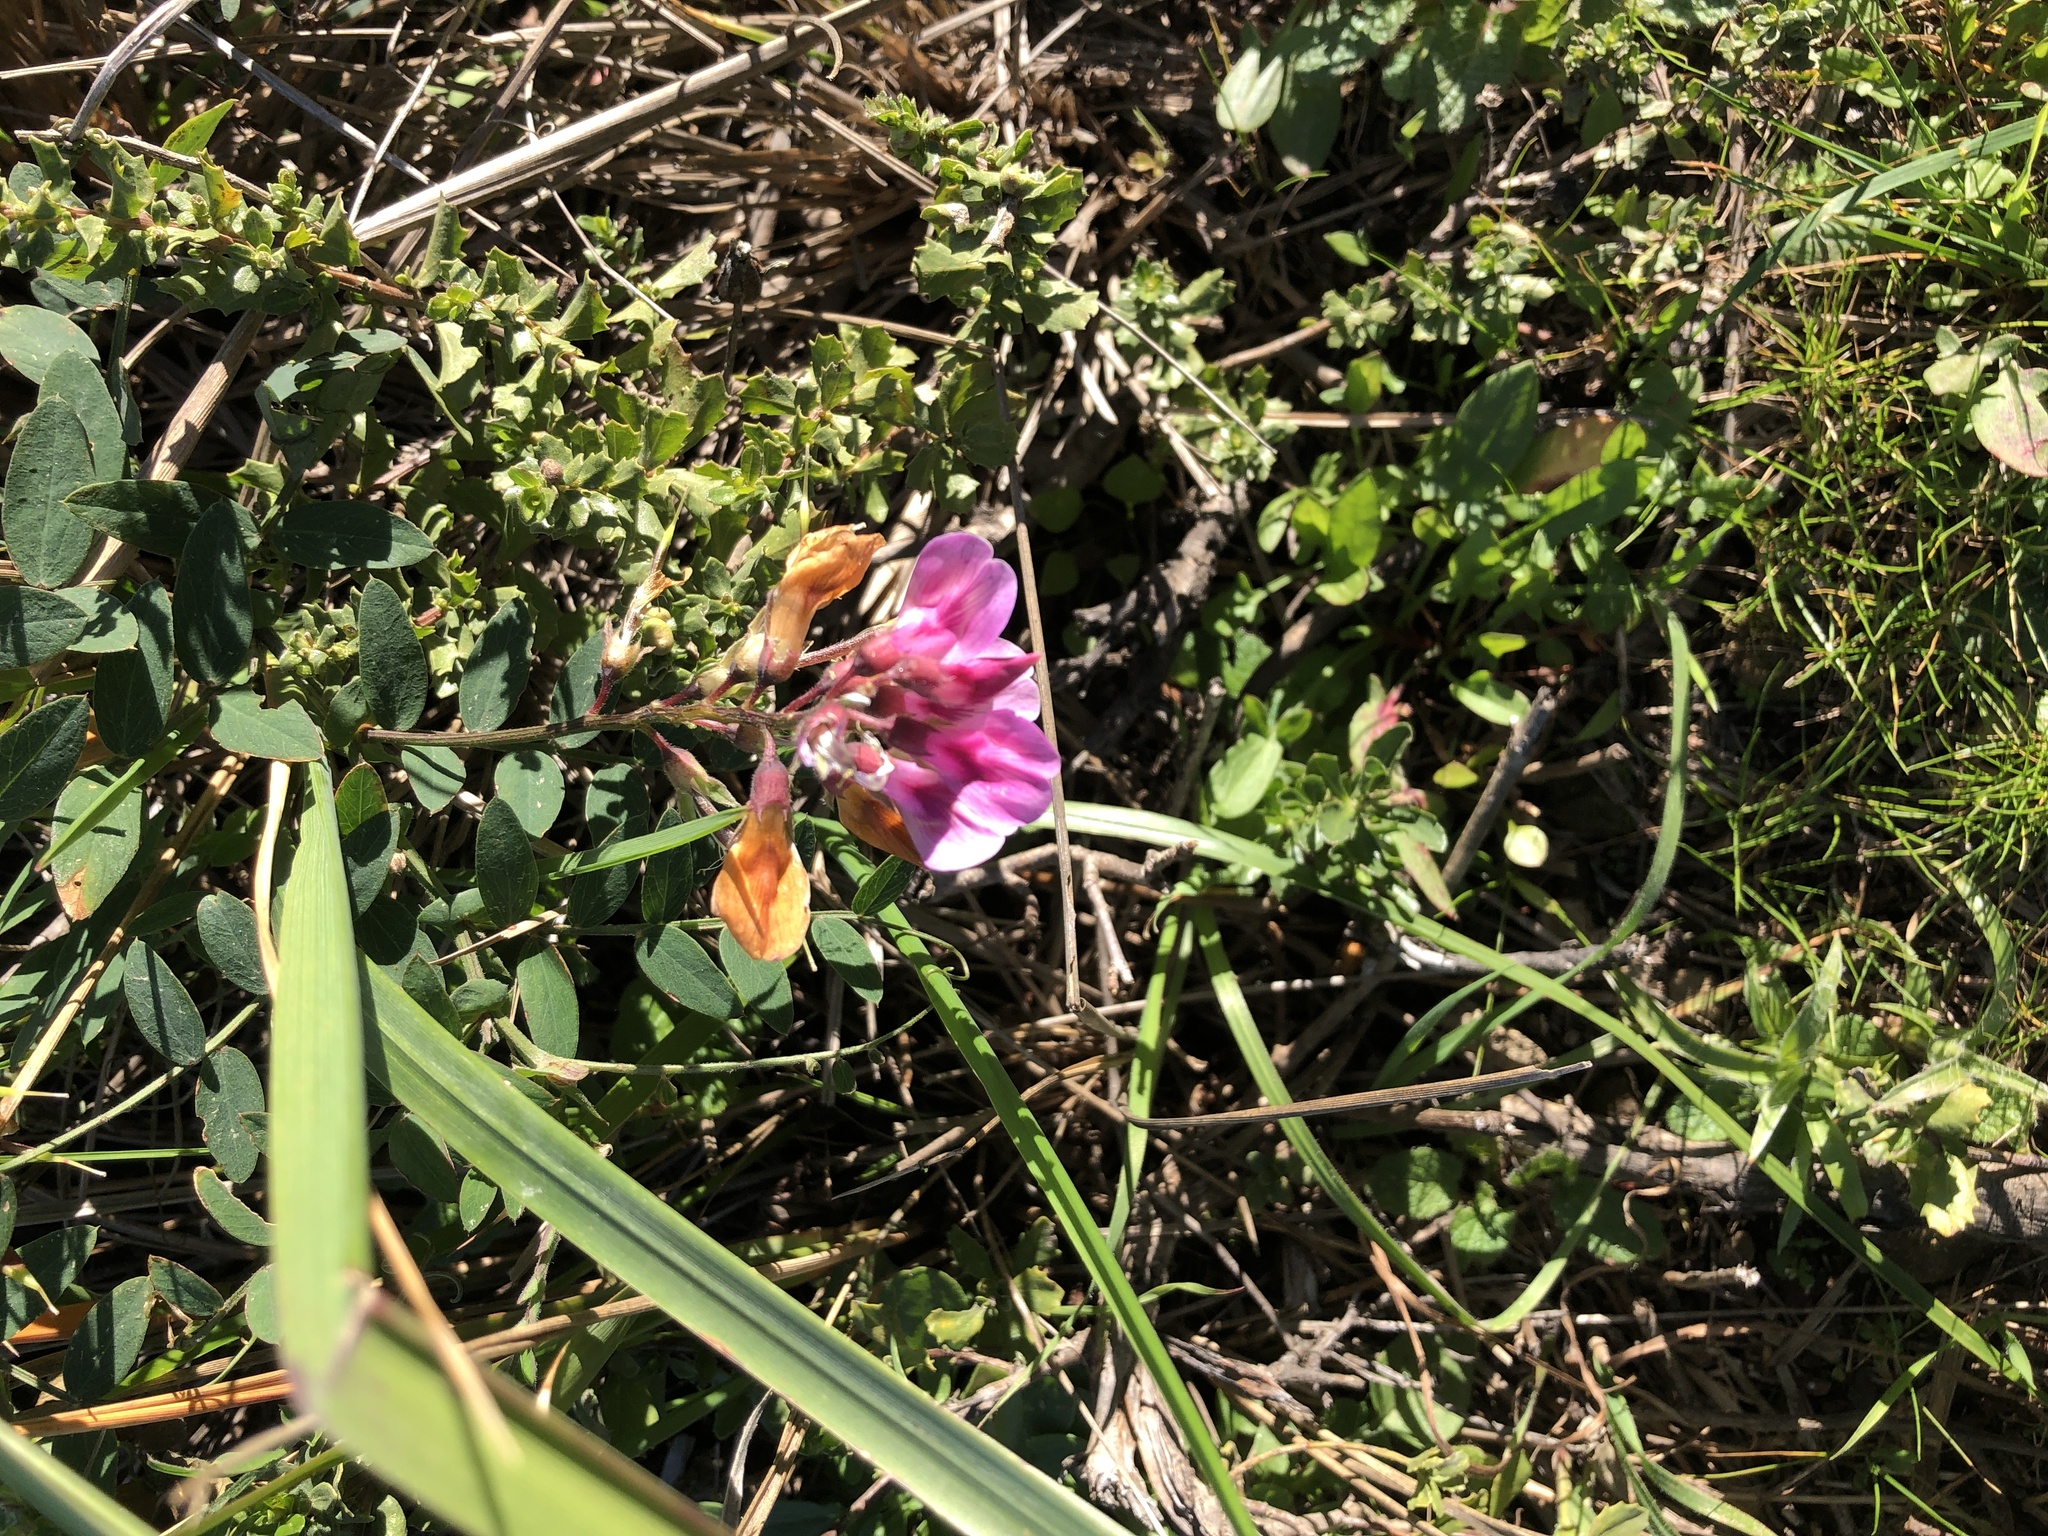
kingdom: Plantae
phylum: Tracheophyta
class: Magnoliopsida
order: Fabales
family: Fabaceae
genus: Lathyrus
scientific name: Lathyrus vestitus
